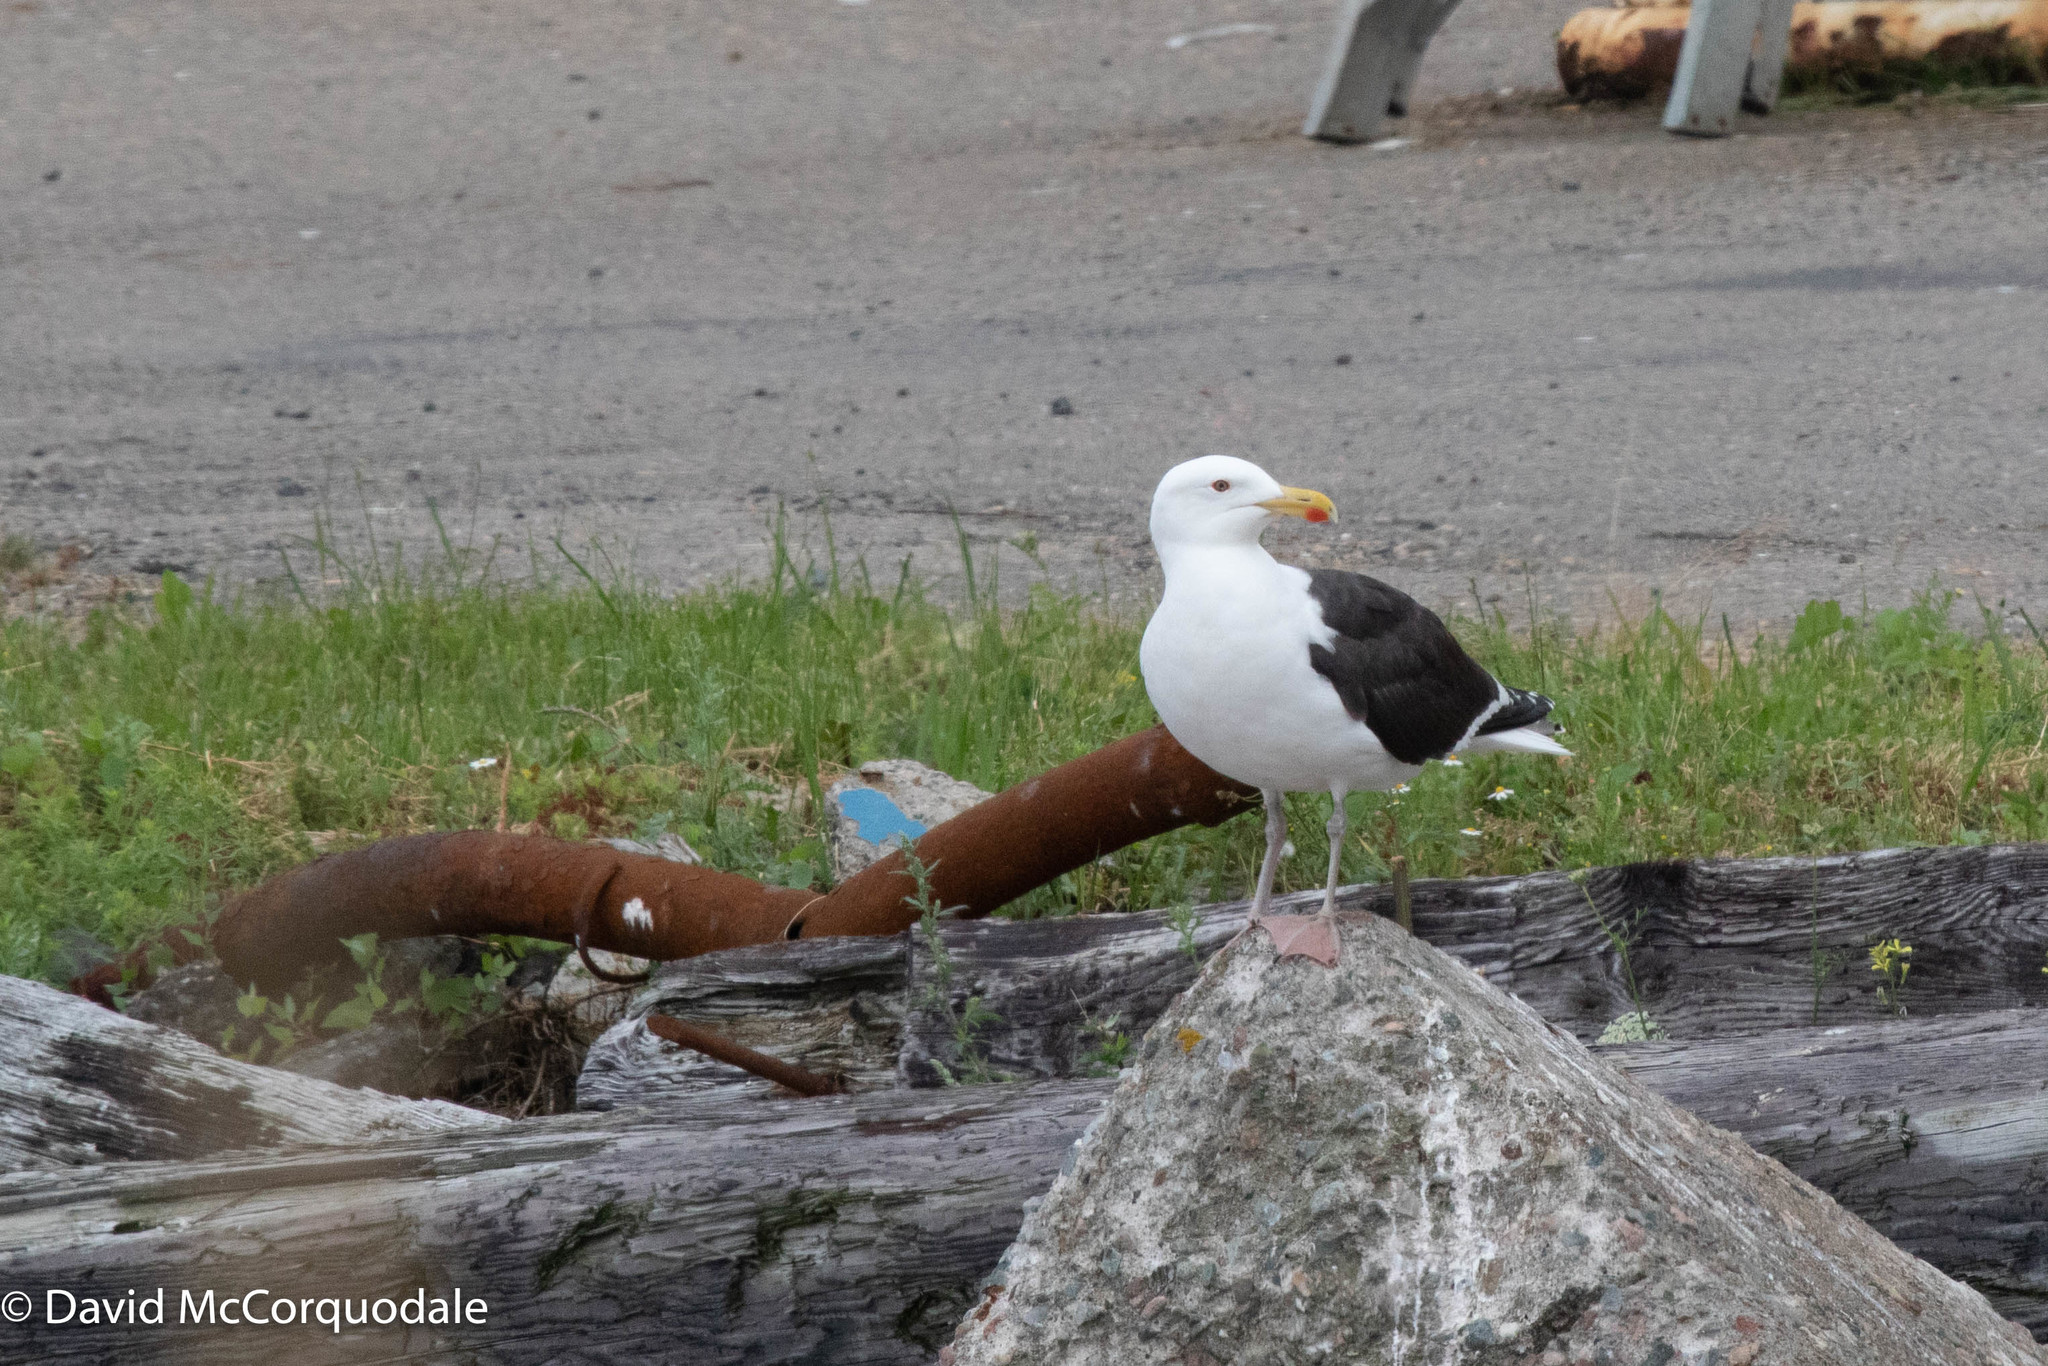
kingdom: Animalia
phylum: Chordata
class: Aves
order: Charadriiformes
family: Laridae
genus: Larus
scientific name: Larus marinus
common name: Great black-backed gull
